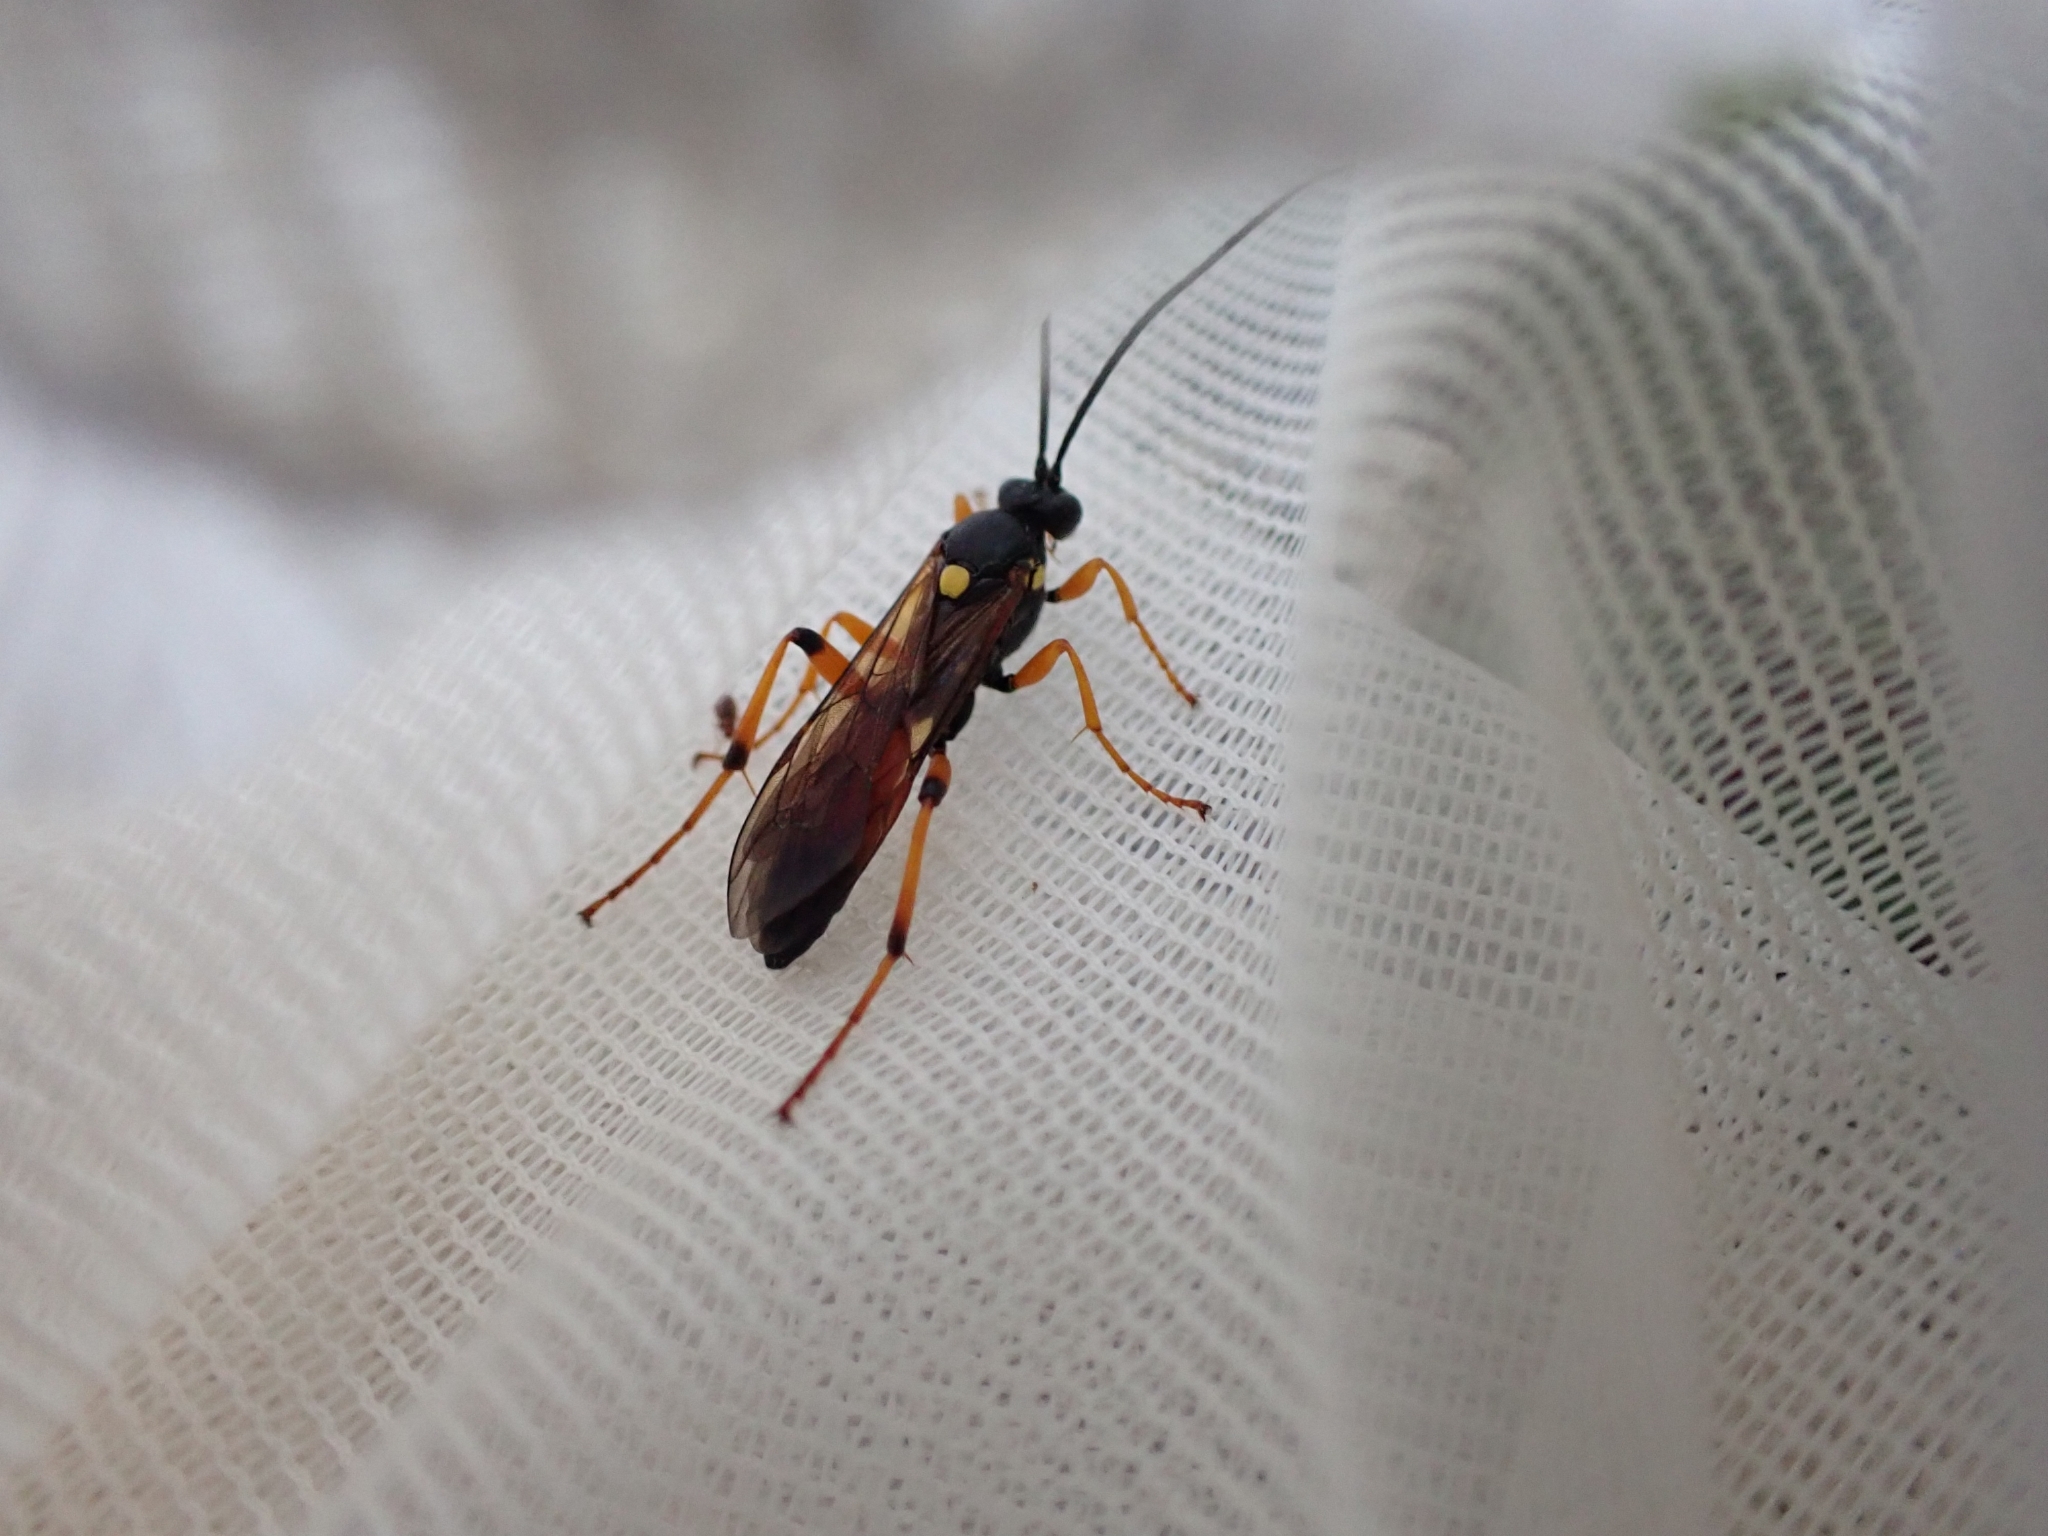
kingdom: Animalia
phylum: Arthropoda
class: Insecta
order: Hymenoptera
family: Ichneumonidae
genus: Ichneumon
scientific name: Ichneumon lotatorius
